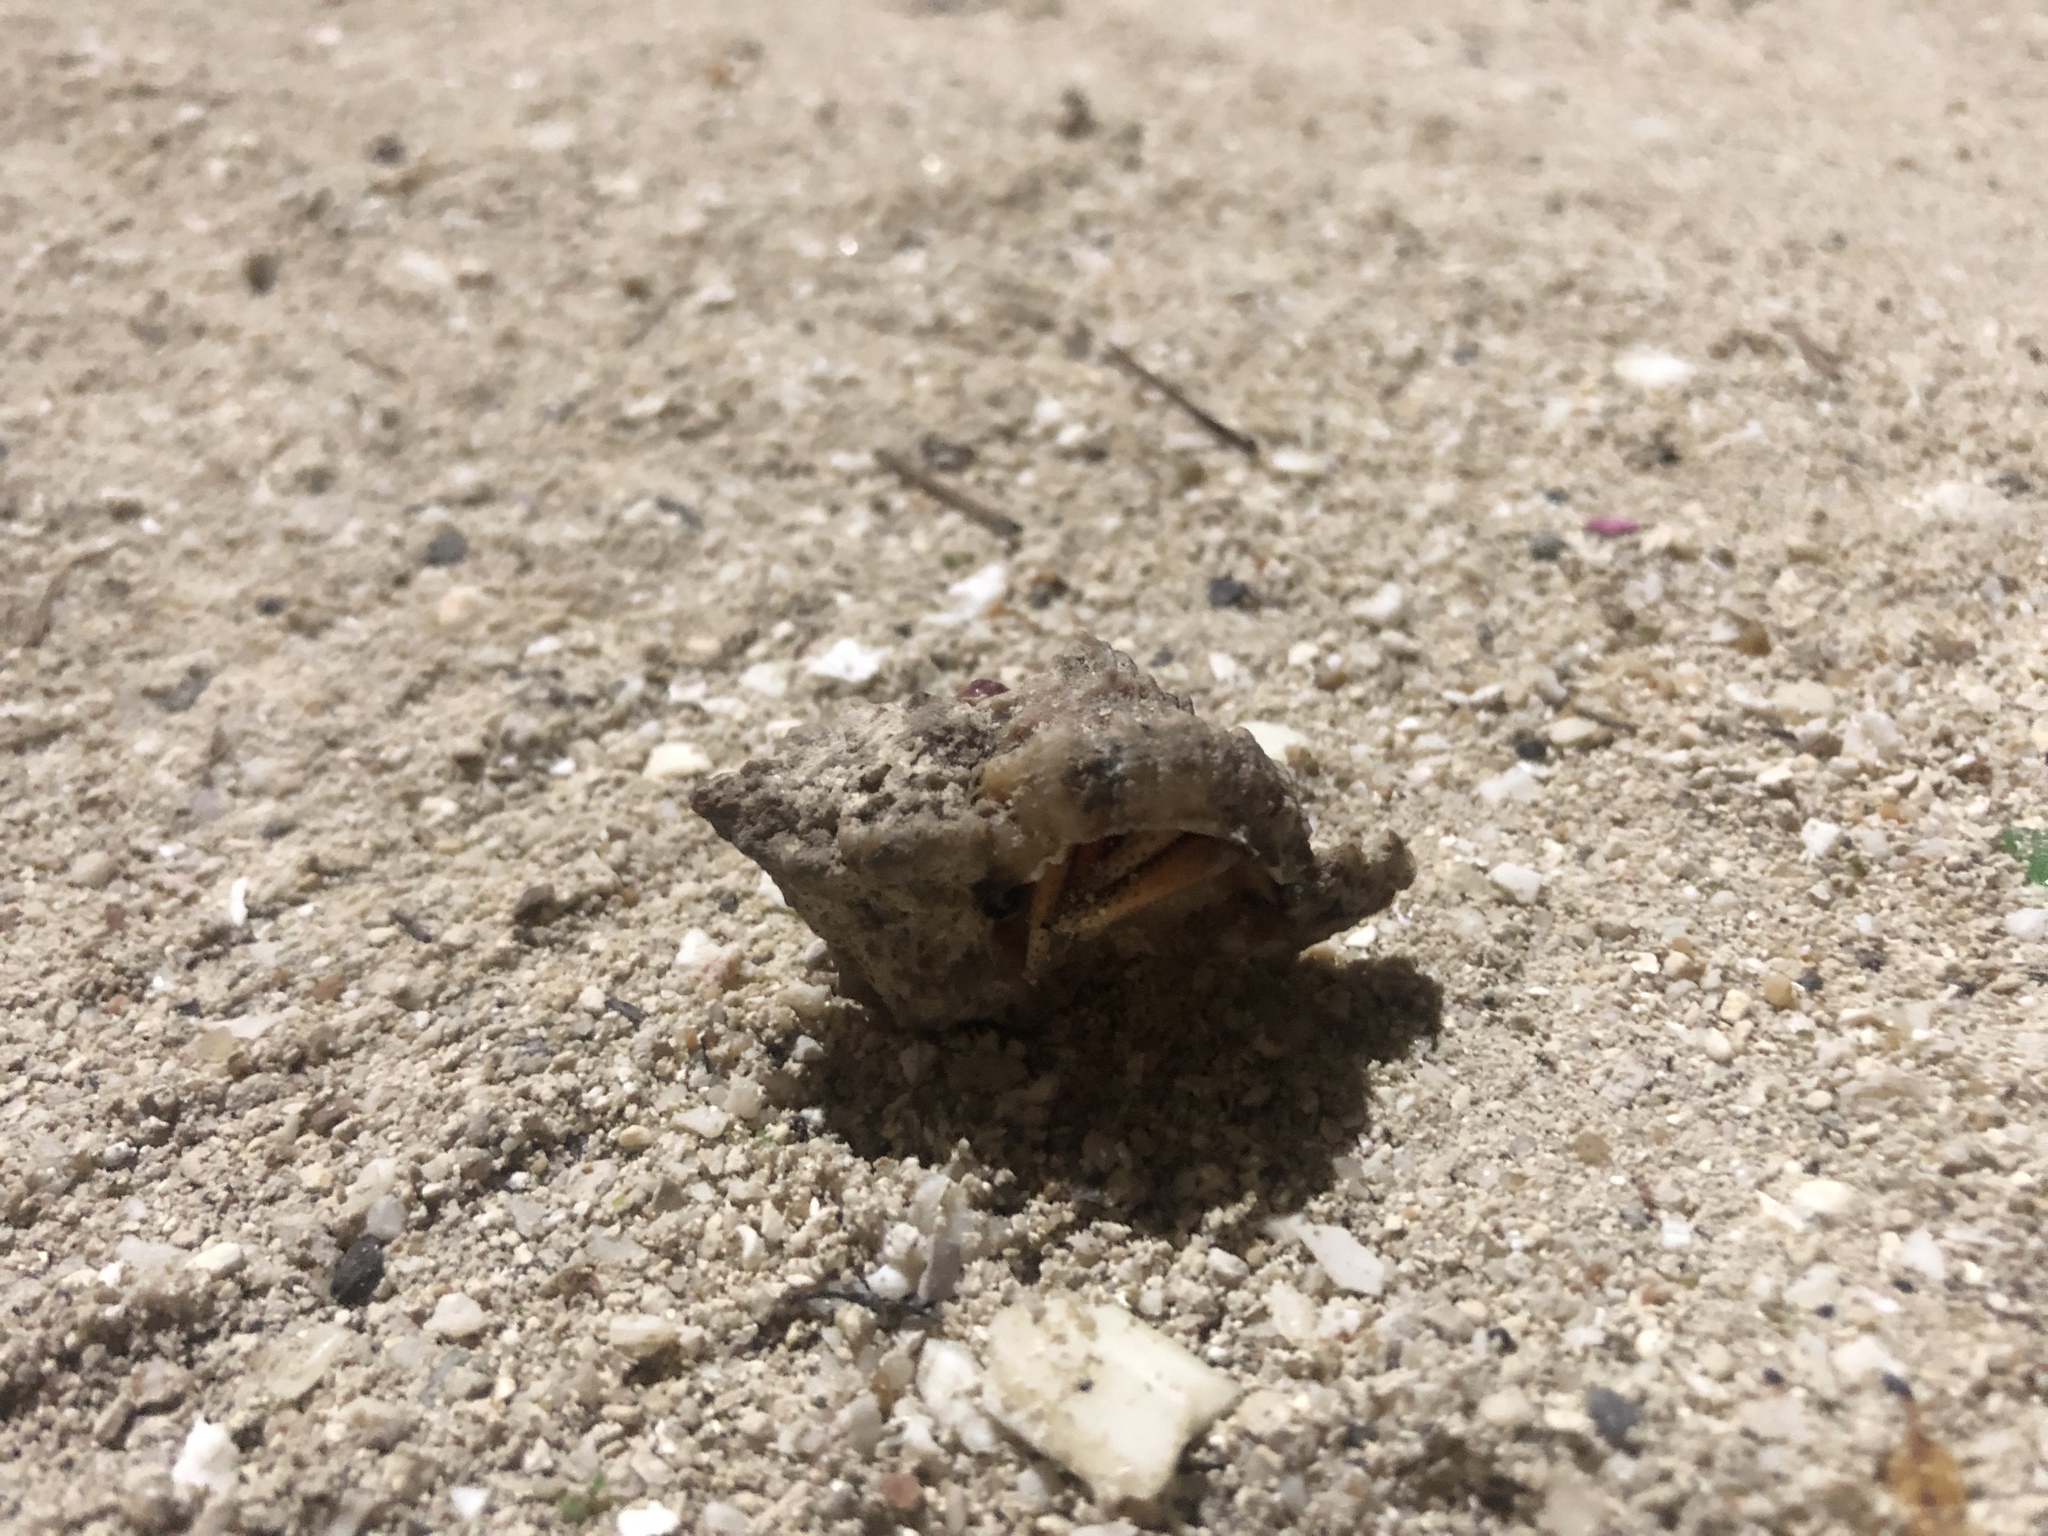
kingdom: Animalia
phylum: Arthropoda
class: Malacostraca
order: Decapoda
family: Coenobitidae
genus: Coenobita
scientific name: Coenobita clypeatus
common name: Caribbean hermit crab
